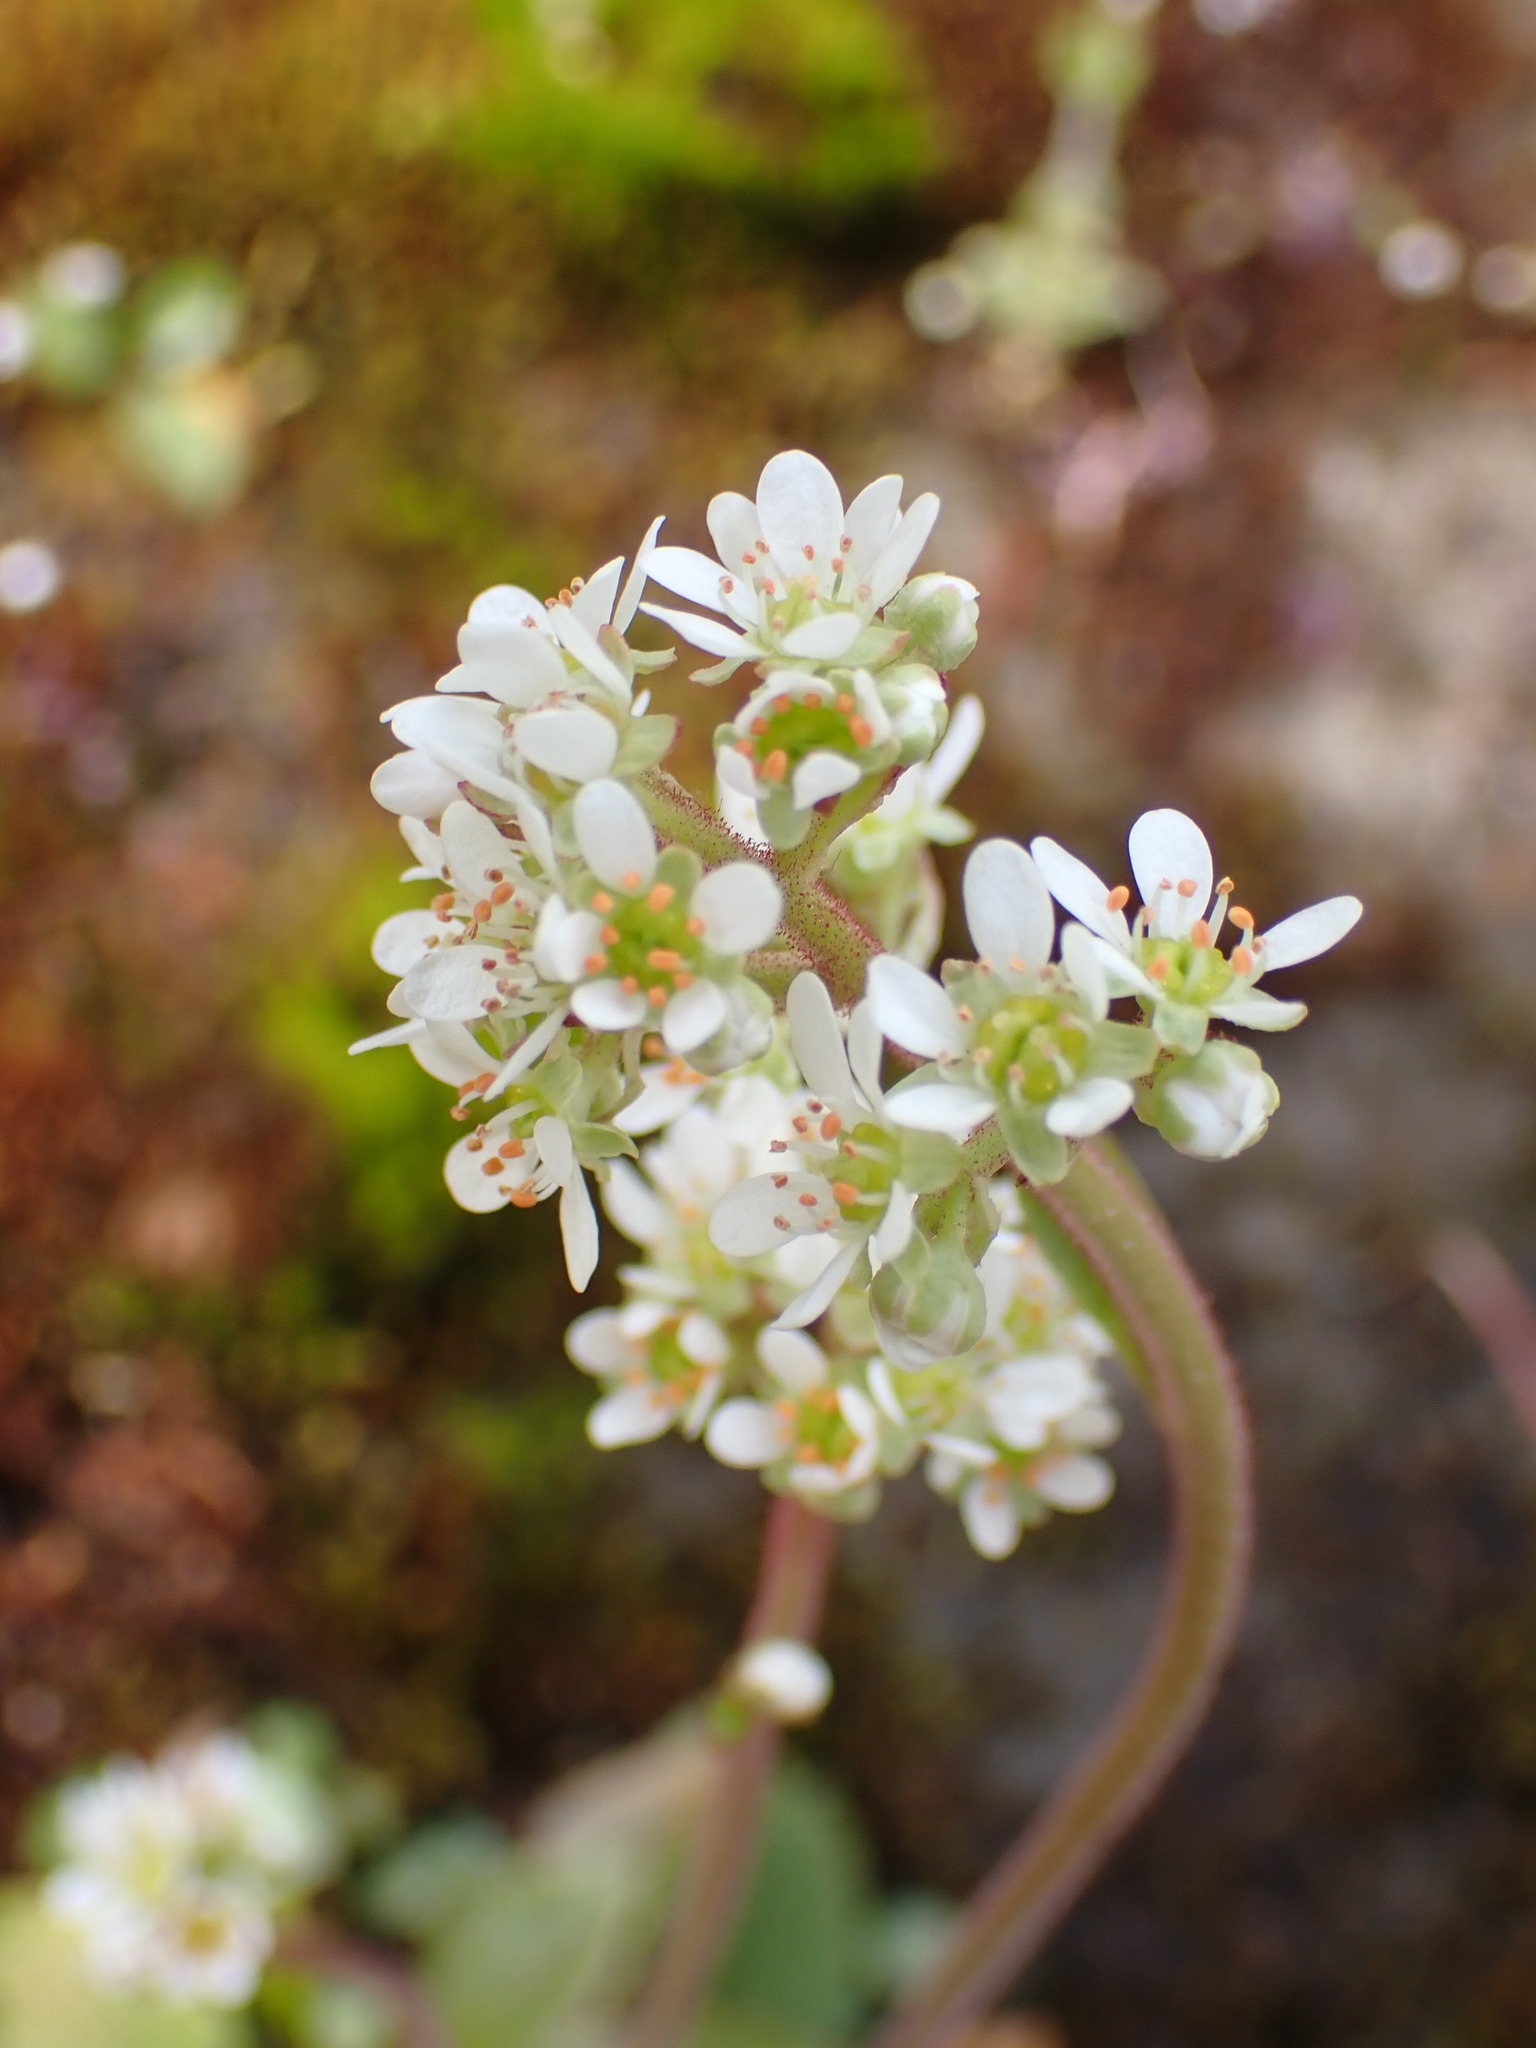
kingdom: Plantae
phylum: Tracheophyta
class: Magnoliopsida
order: Saxifragales
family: Saxifragaceae
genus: Micranthes
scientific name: Micranthes integrifolia
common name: Wholeleaf saxifrage
